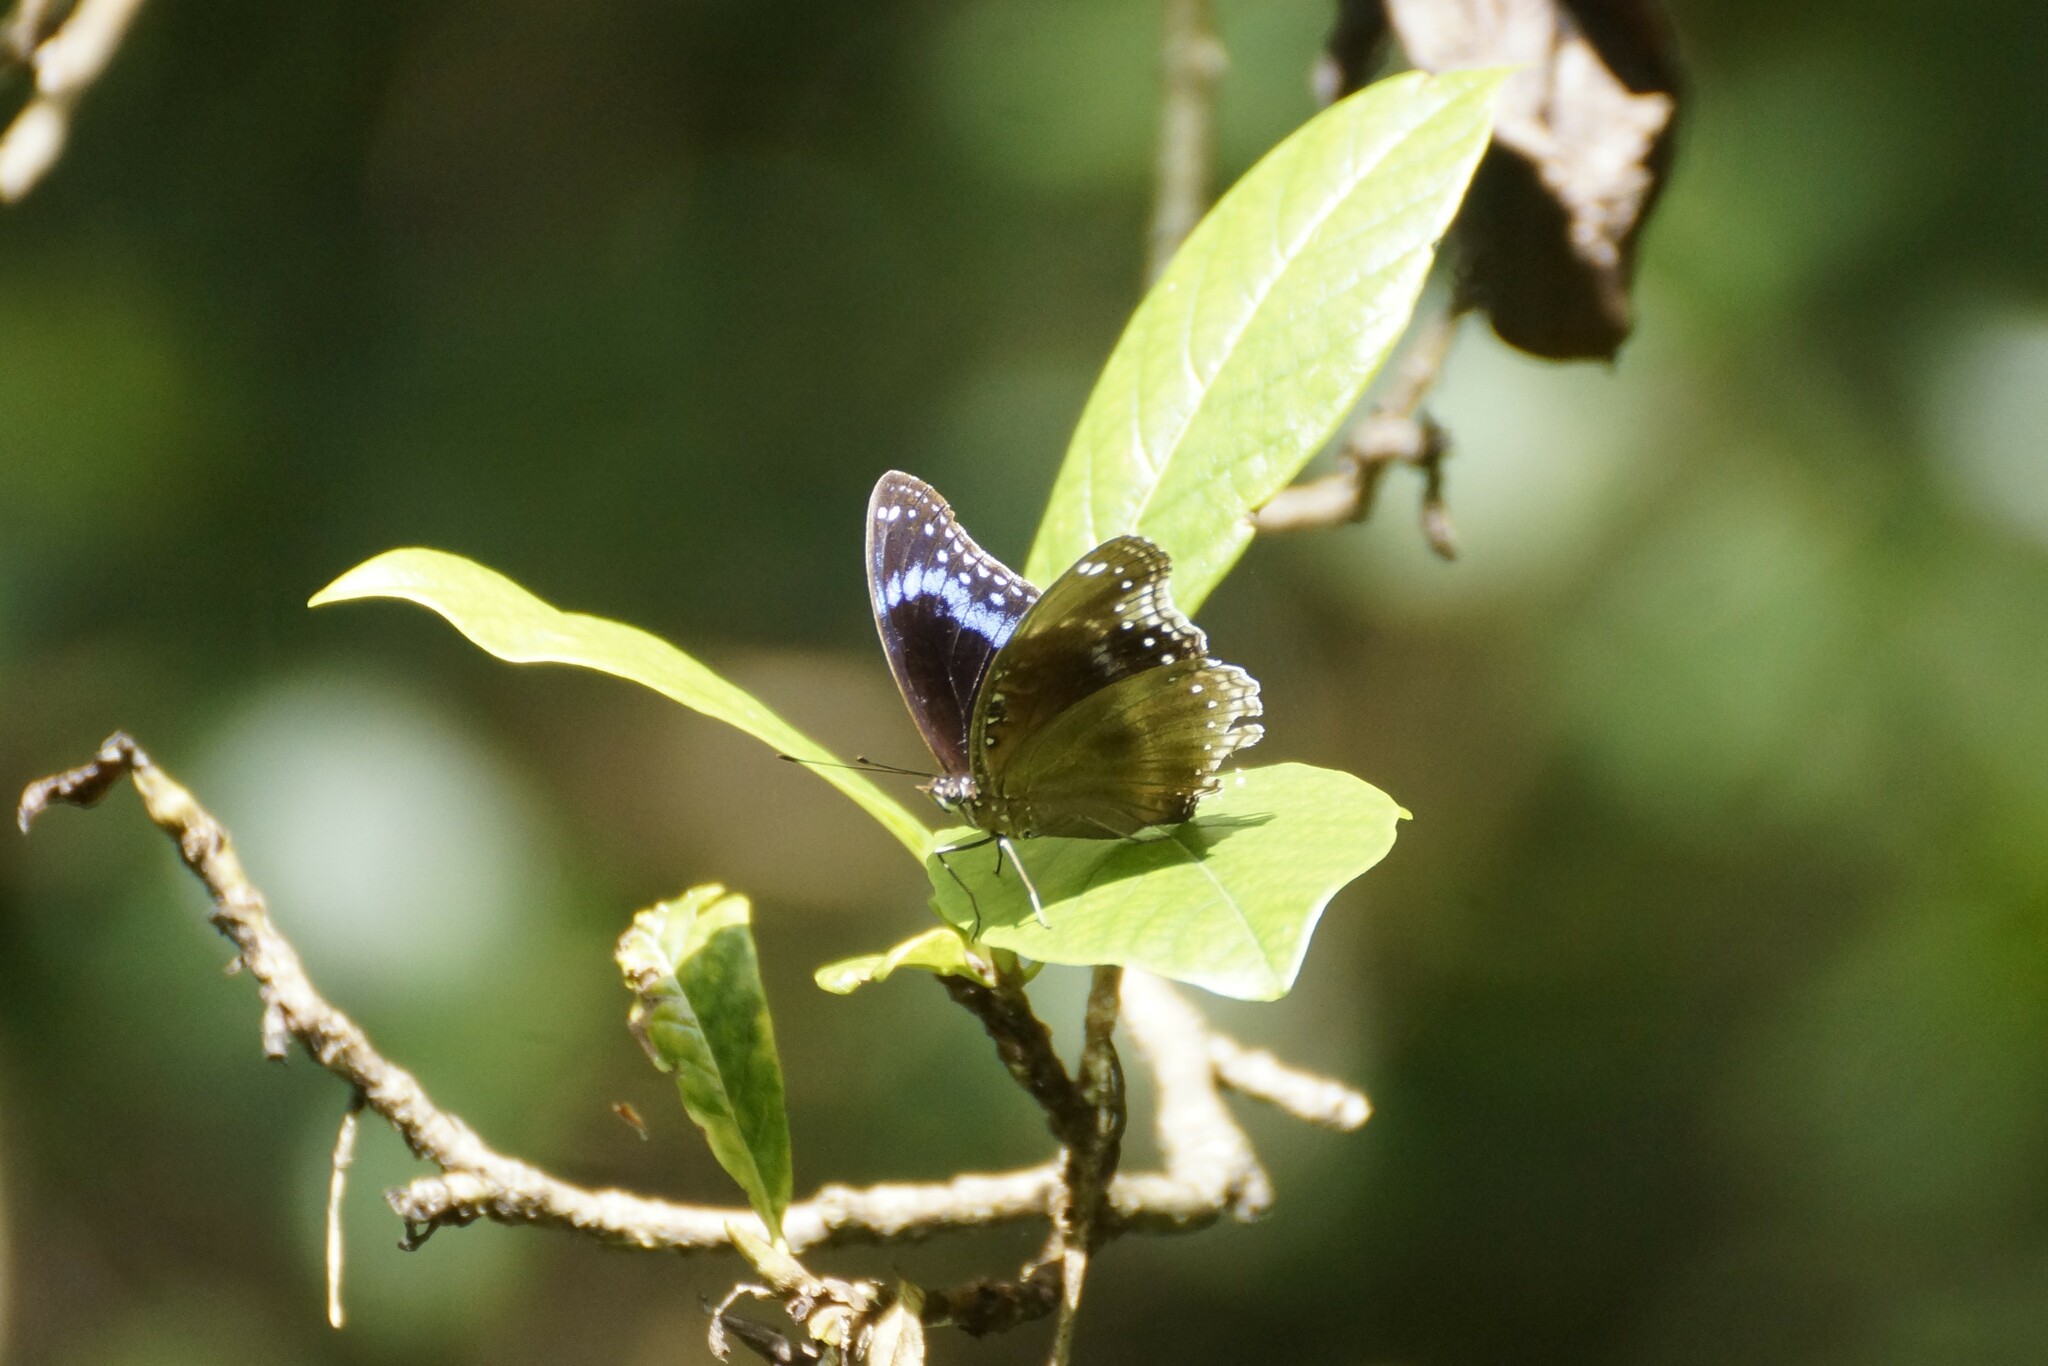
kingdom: Animalia
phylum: Arthropoda
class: Insecta
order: Lepidoptera
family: Nymphalidae
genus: Hypolimnas
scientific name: Hypolimnas alimena
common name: Blue-banded eggfly
